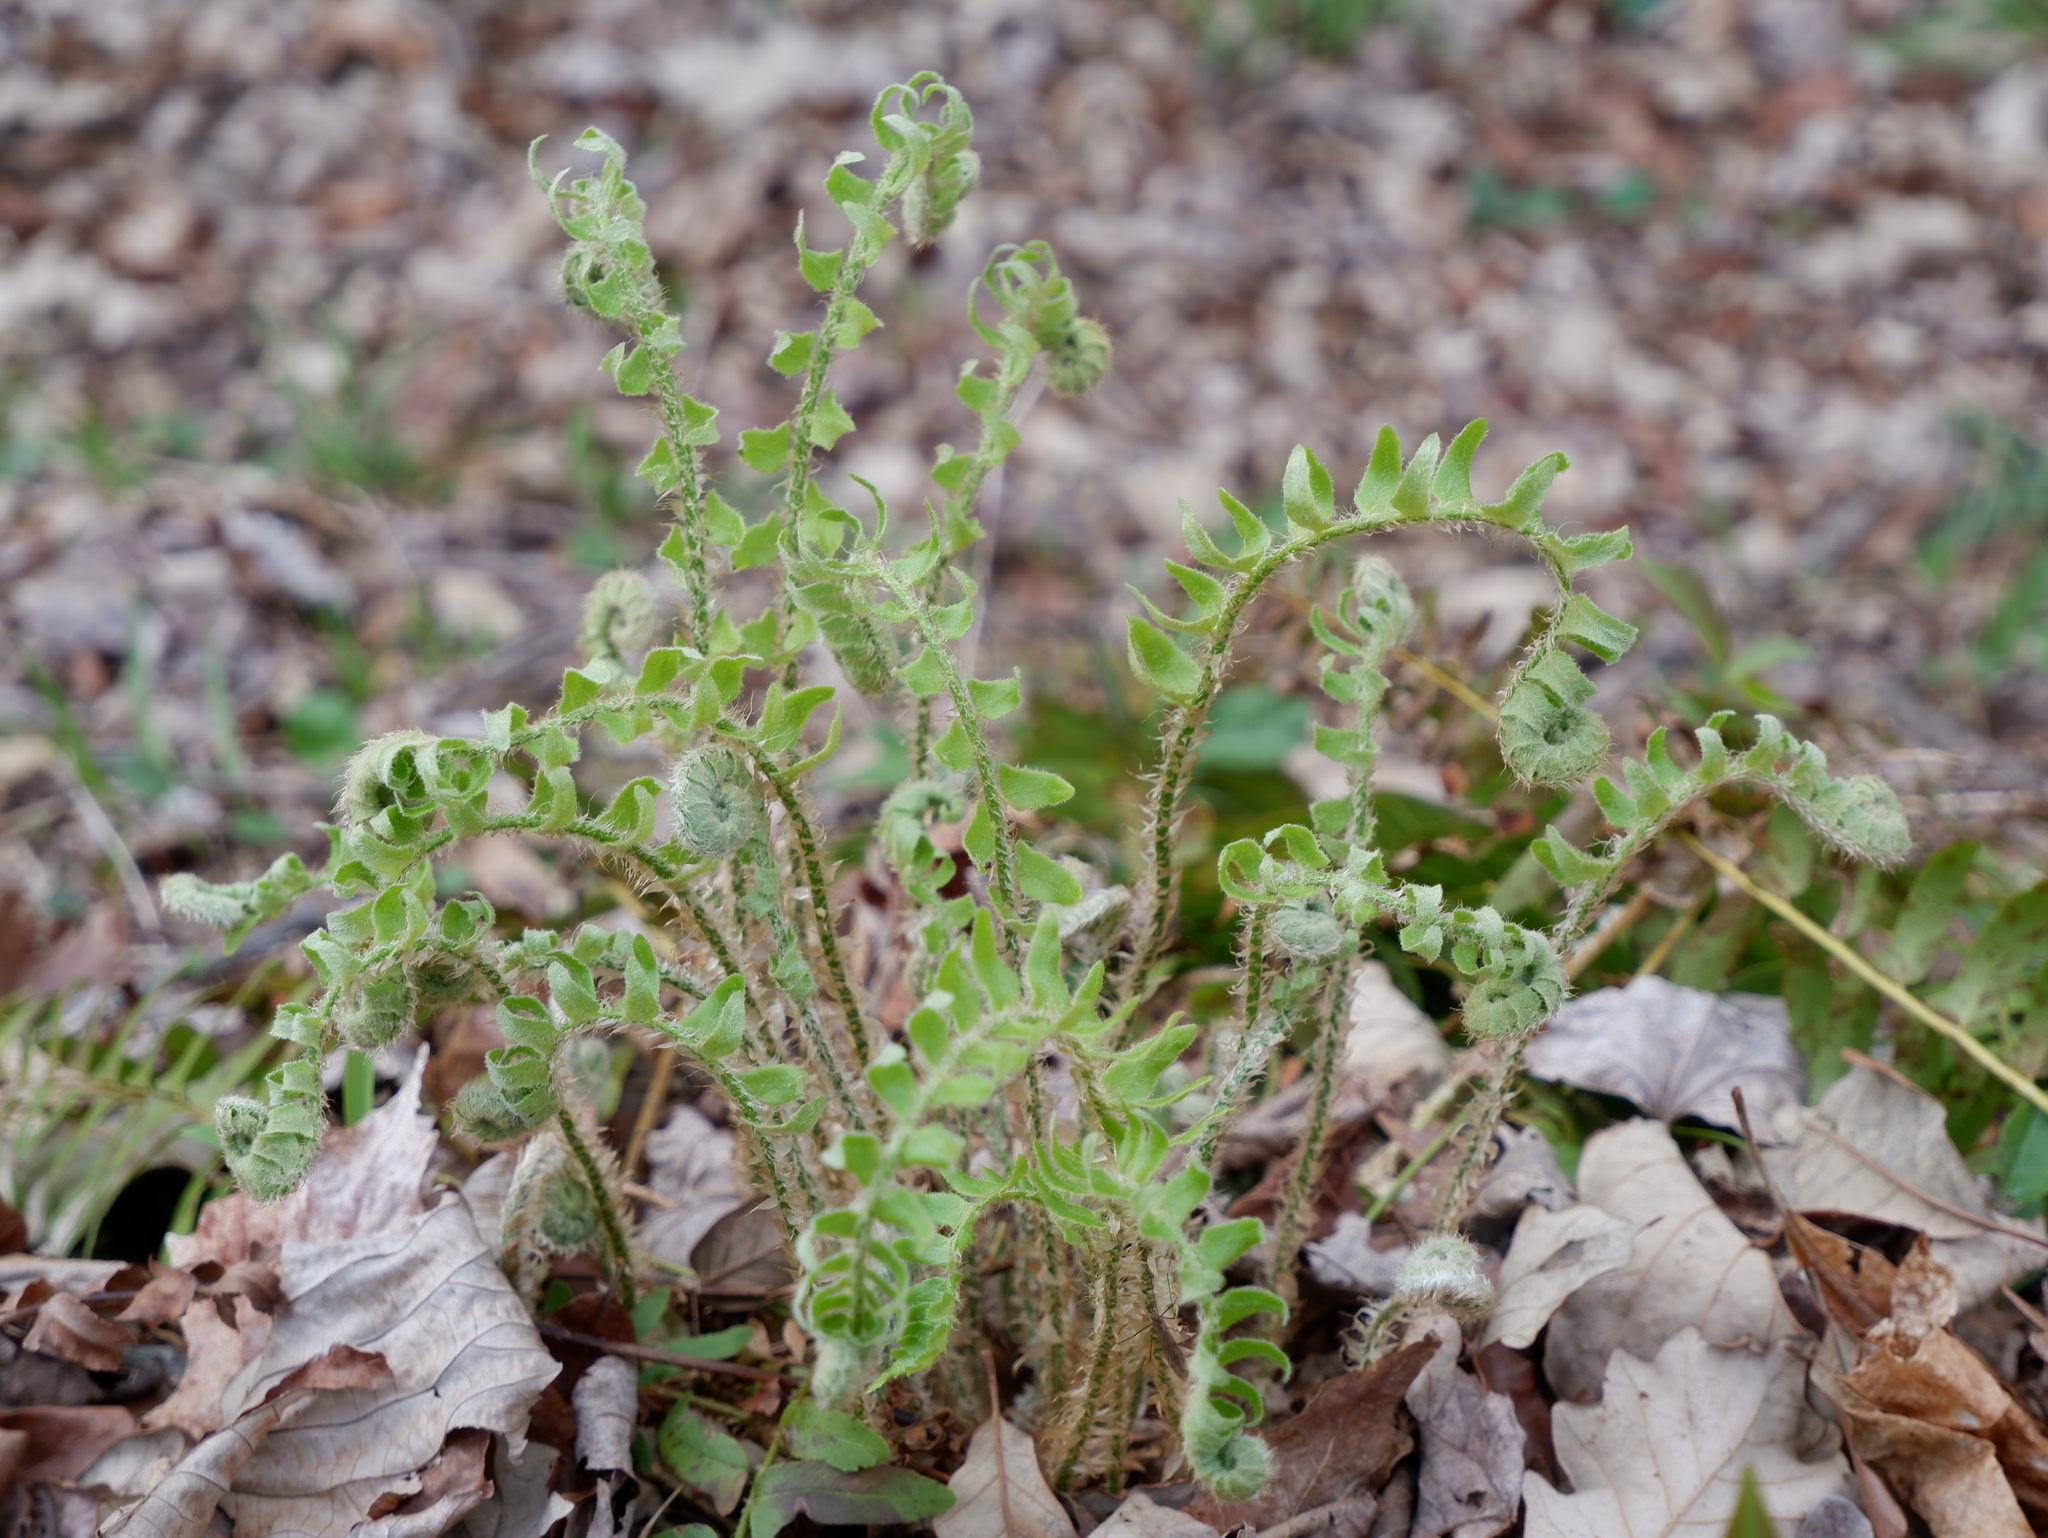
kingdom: Plantae
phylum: Tracheophyta
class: Polypodiopsida
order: Polypodiales
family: Dryopteridaceae
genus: Polystichum
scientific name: Polystichum acrostichoides
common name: Christmas fern
